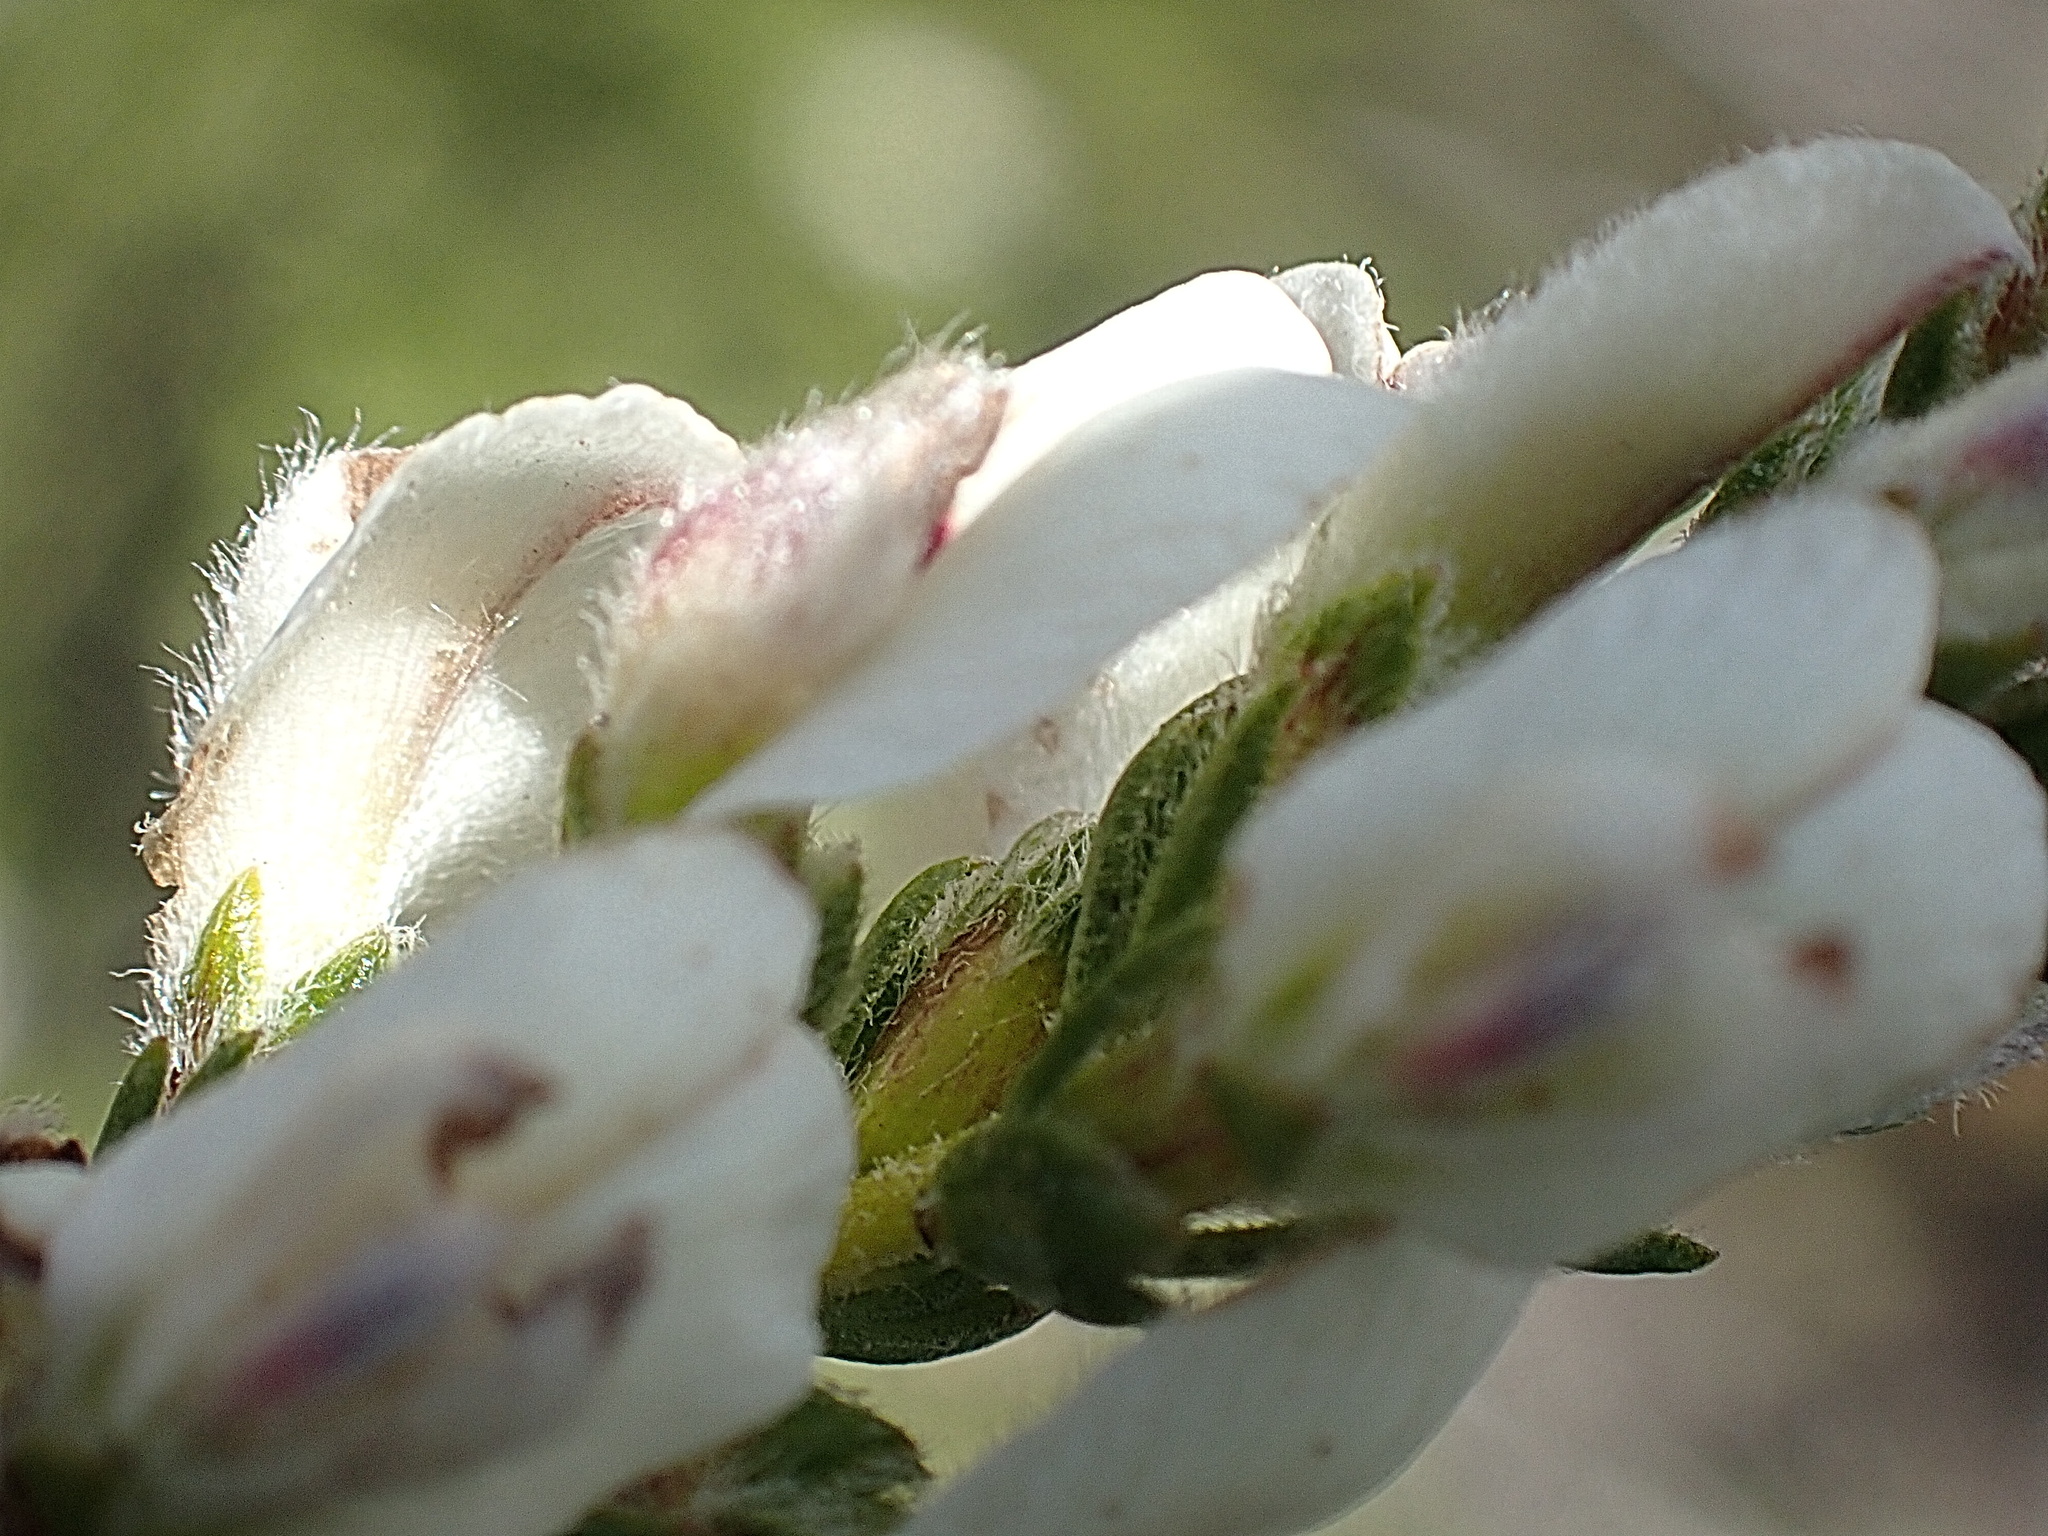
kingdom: Plantae
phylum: Tracheophyta
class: Magnoliopsida
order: Fabales
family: Fabaceae
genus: Aspalathus
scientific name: Aspalathus nigra
